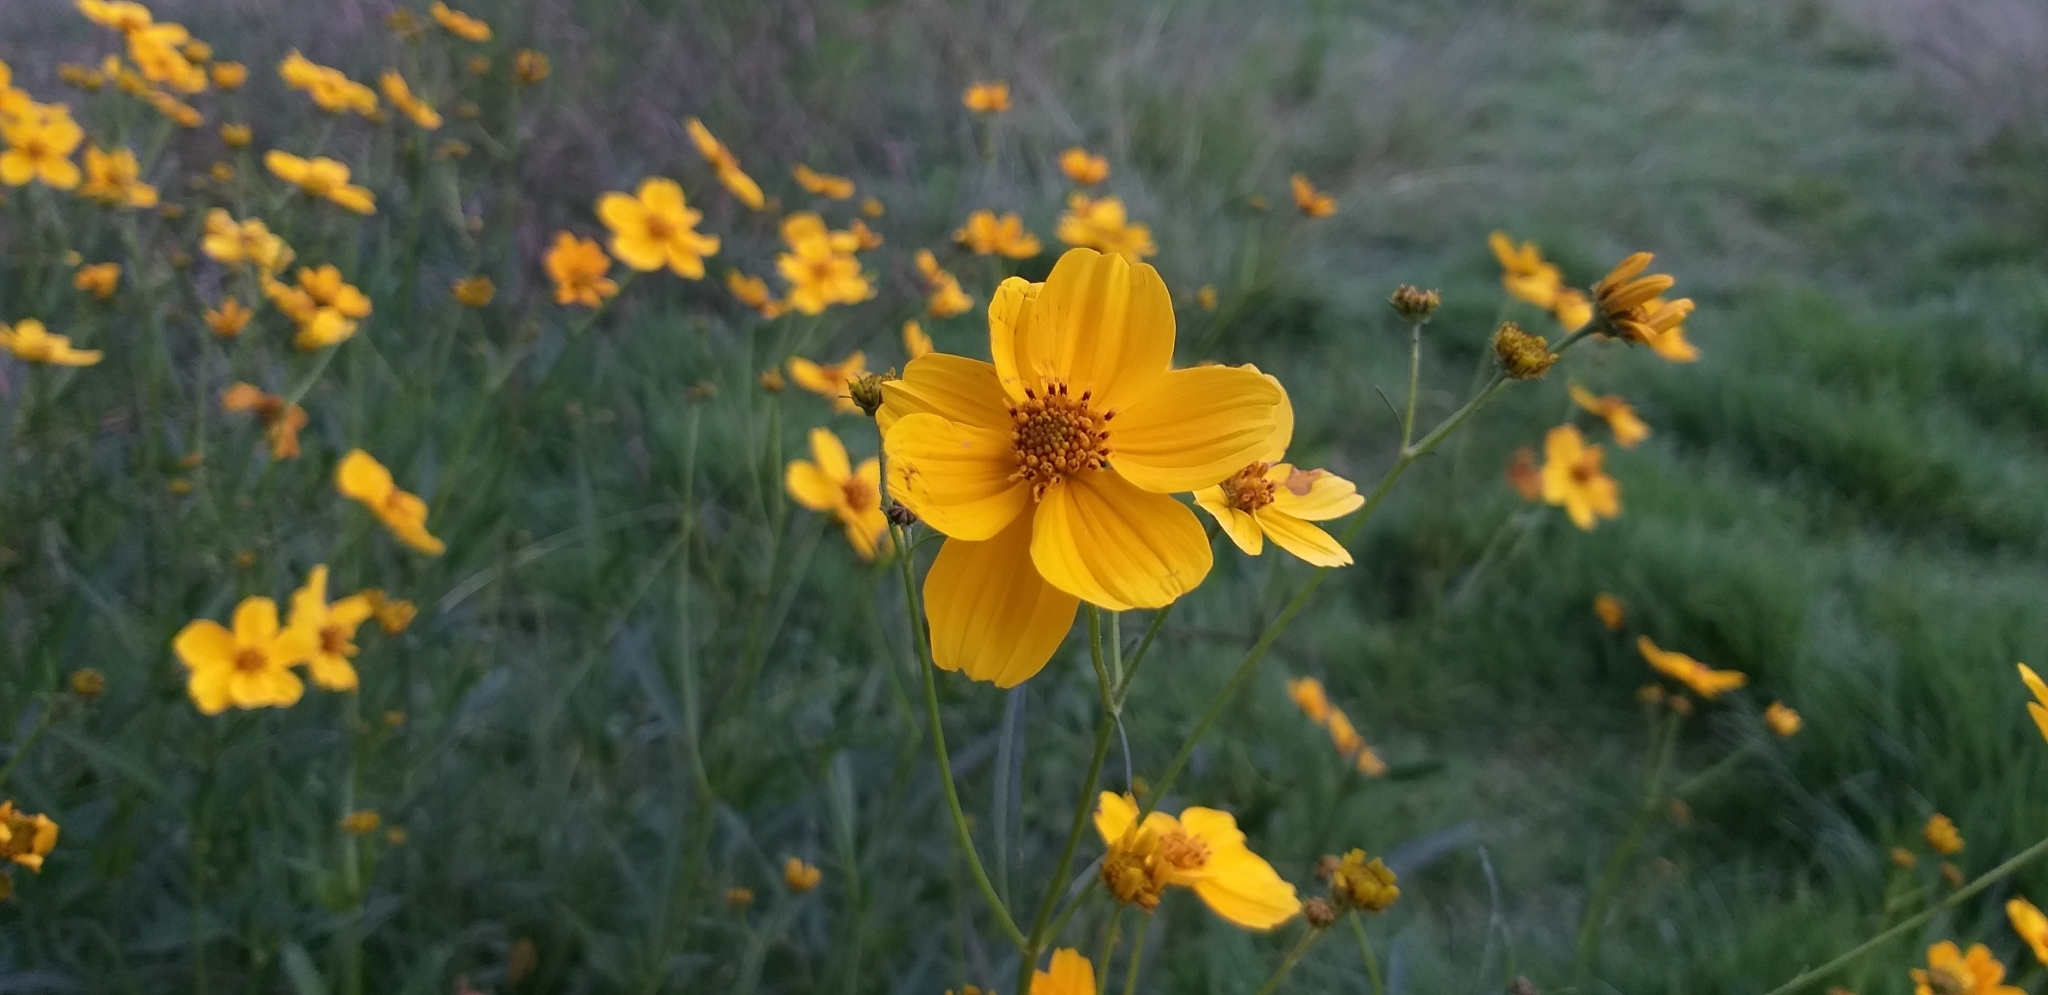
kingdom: Plantae
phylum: Tracheophyta
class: Magnoliopsida
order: Asterales
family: Asteraceae
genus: Bidens
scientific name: Bidens aurea
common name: Arizona beggar-ticks
